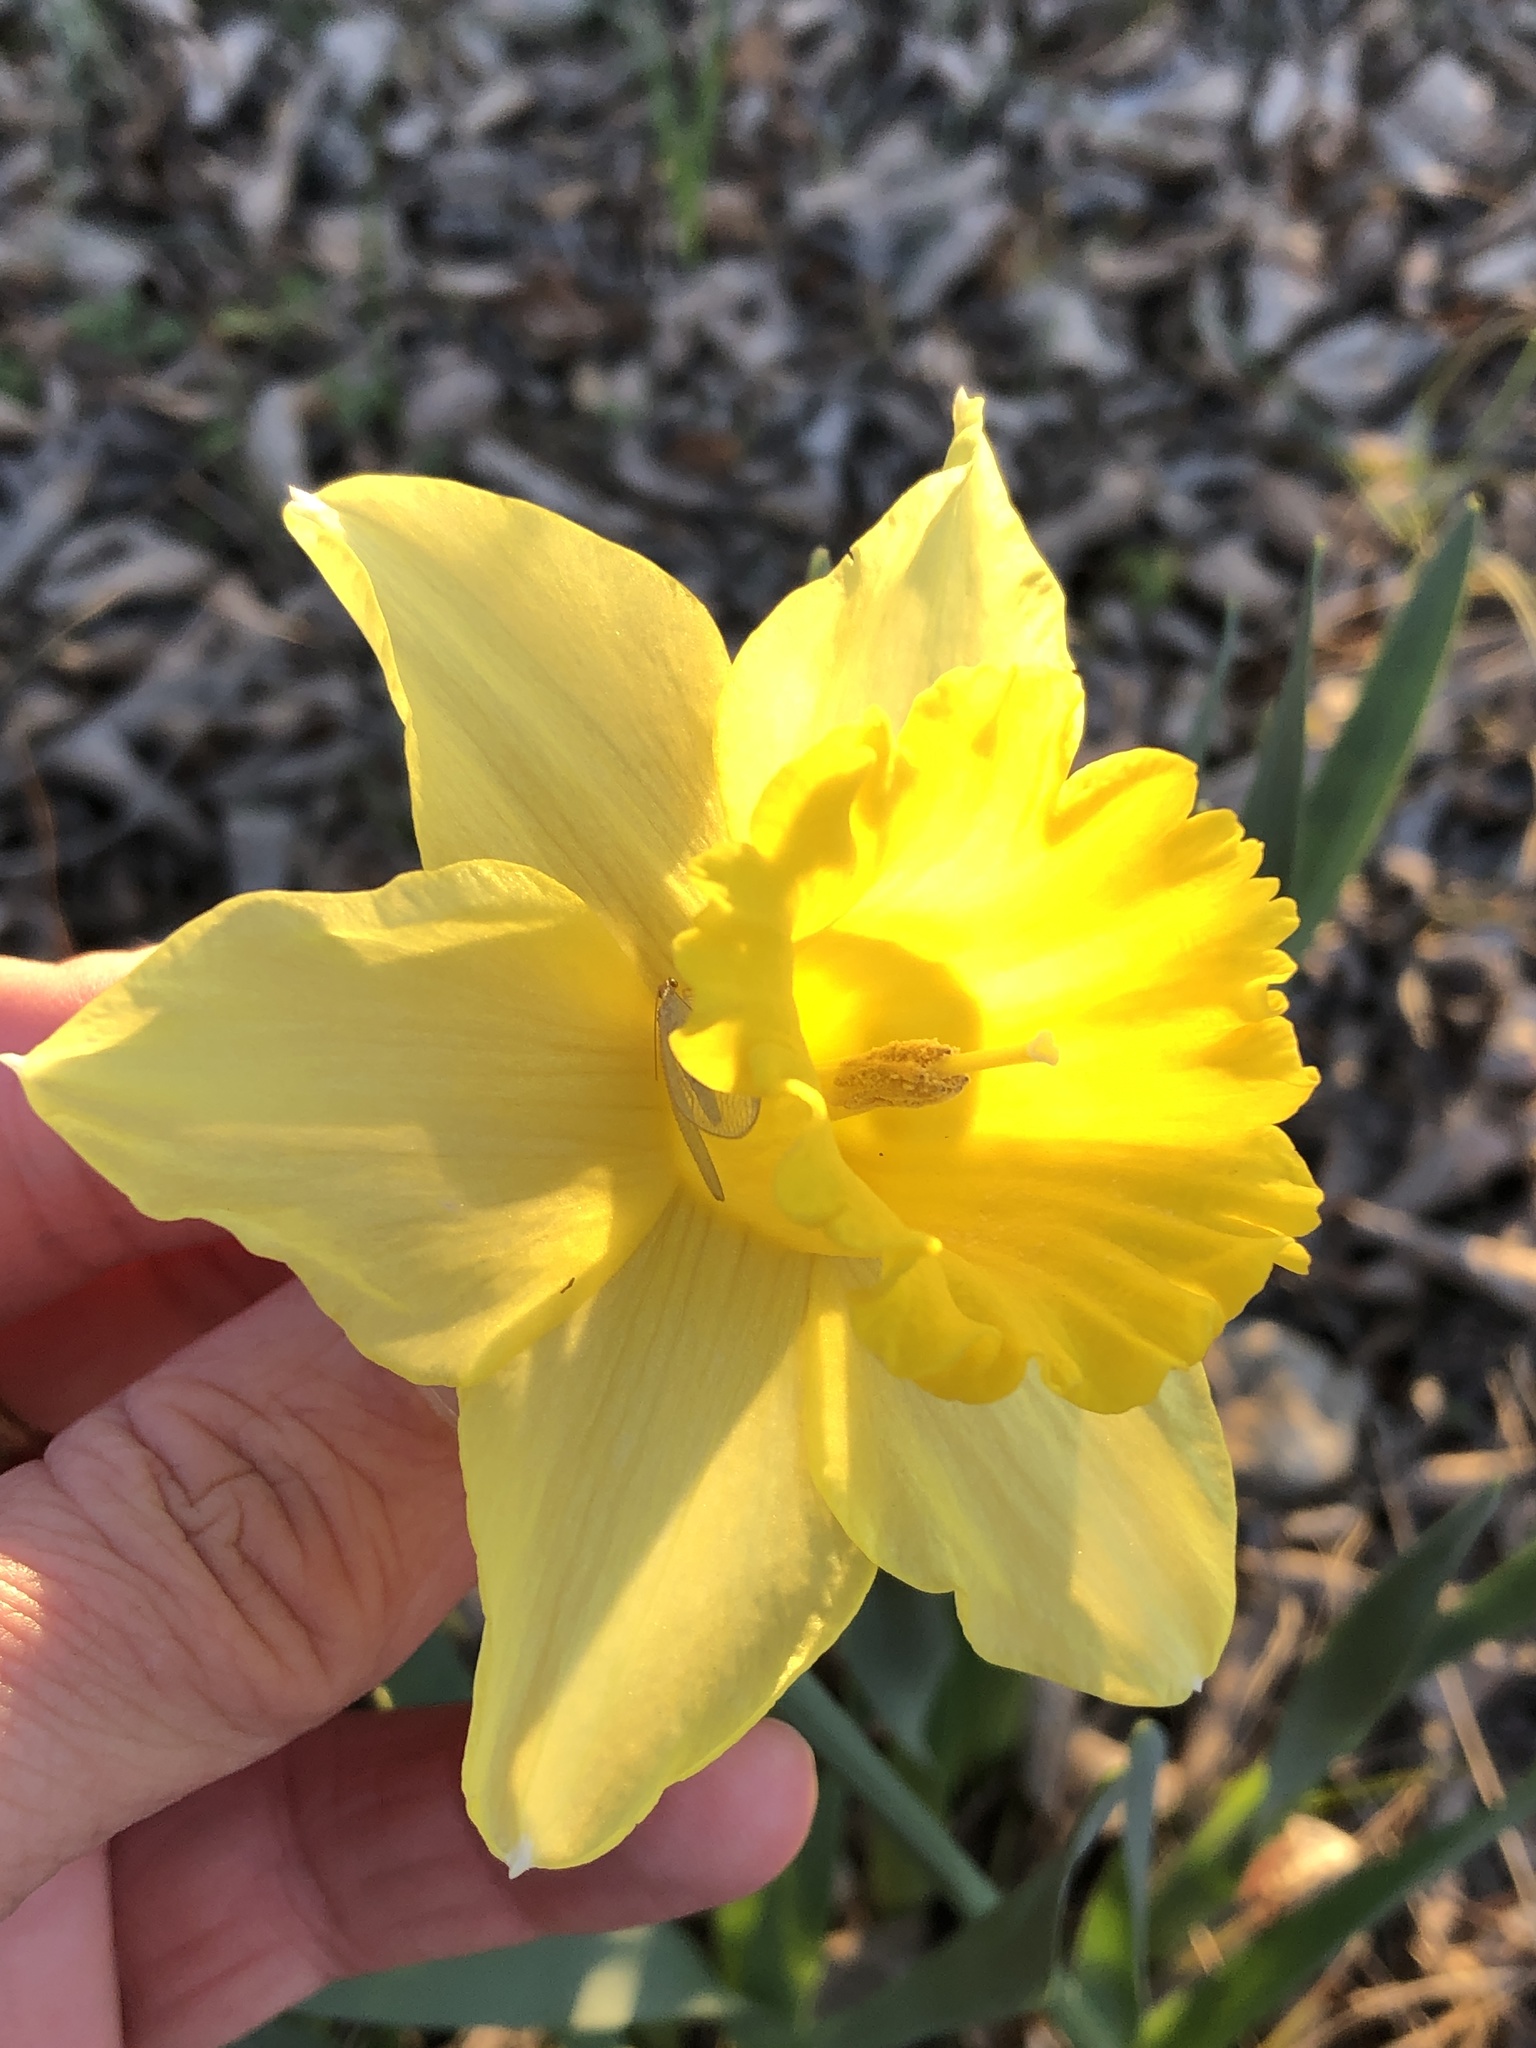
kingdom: Plantae
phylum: Tracheophyta
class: Liliopsida
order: Asparagales
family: Amaryllidaceae
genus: Narcissus
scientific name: Narcissus pseudonarcissus
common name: Daffodil
